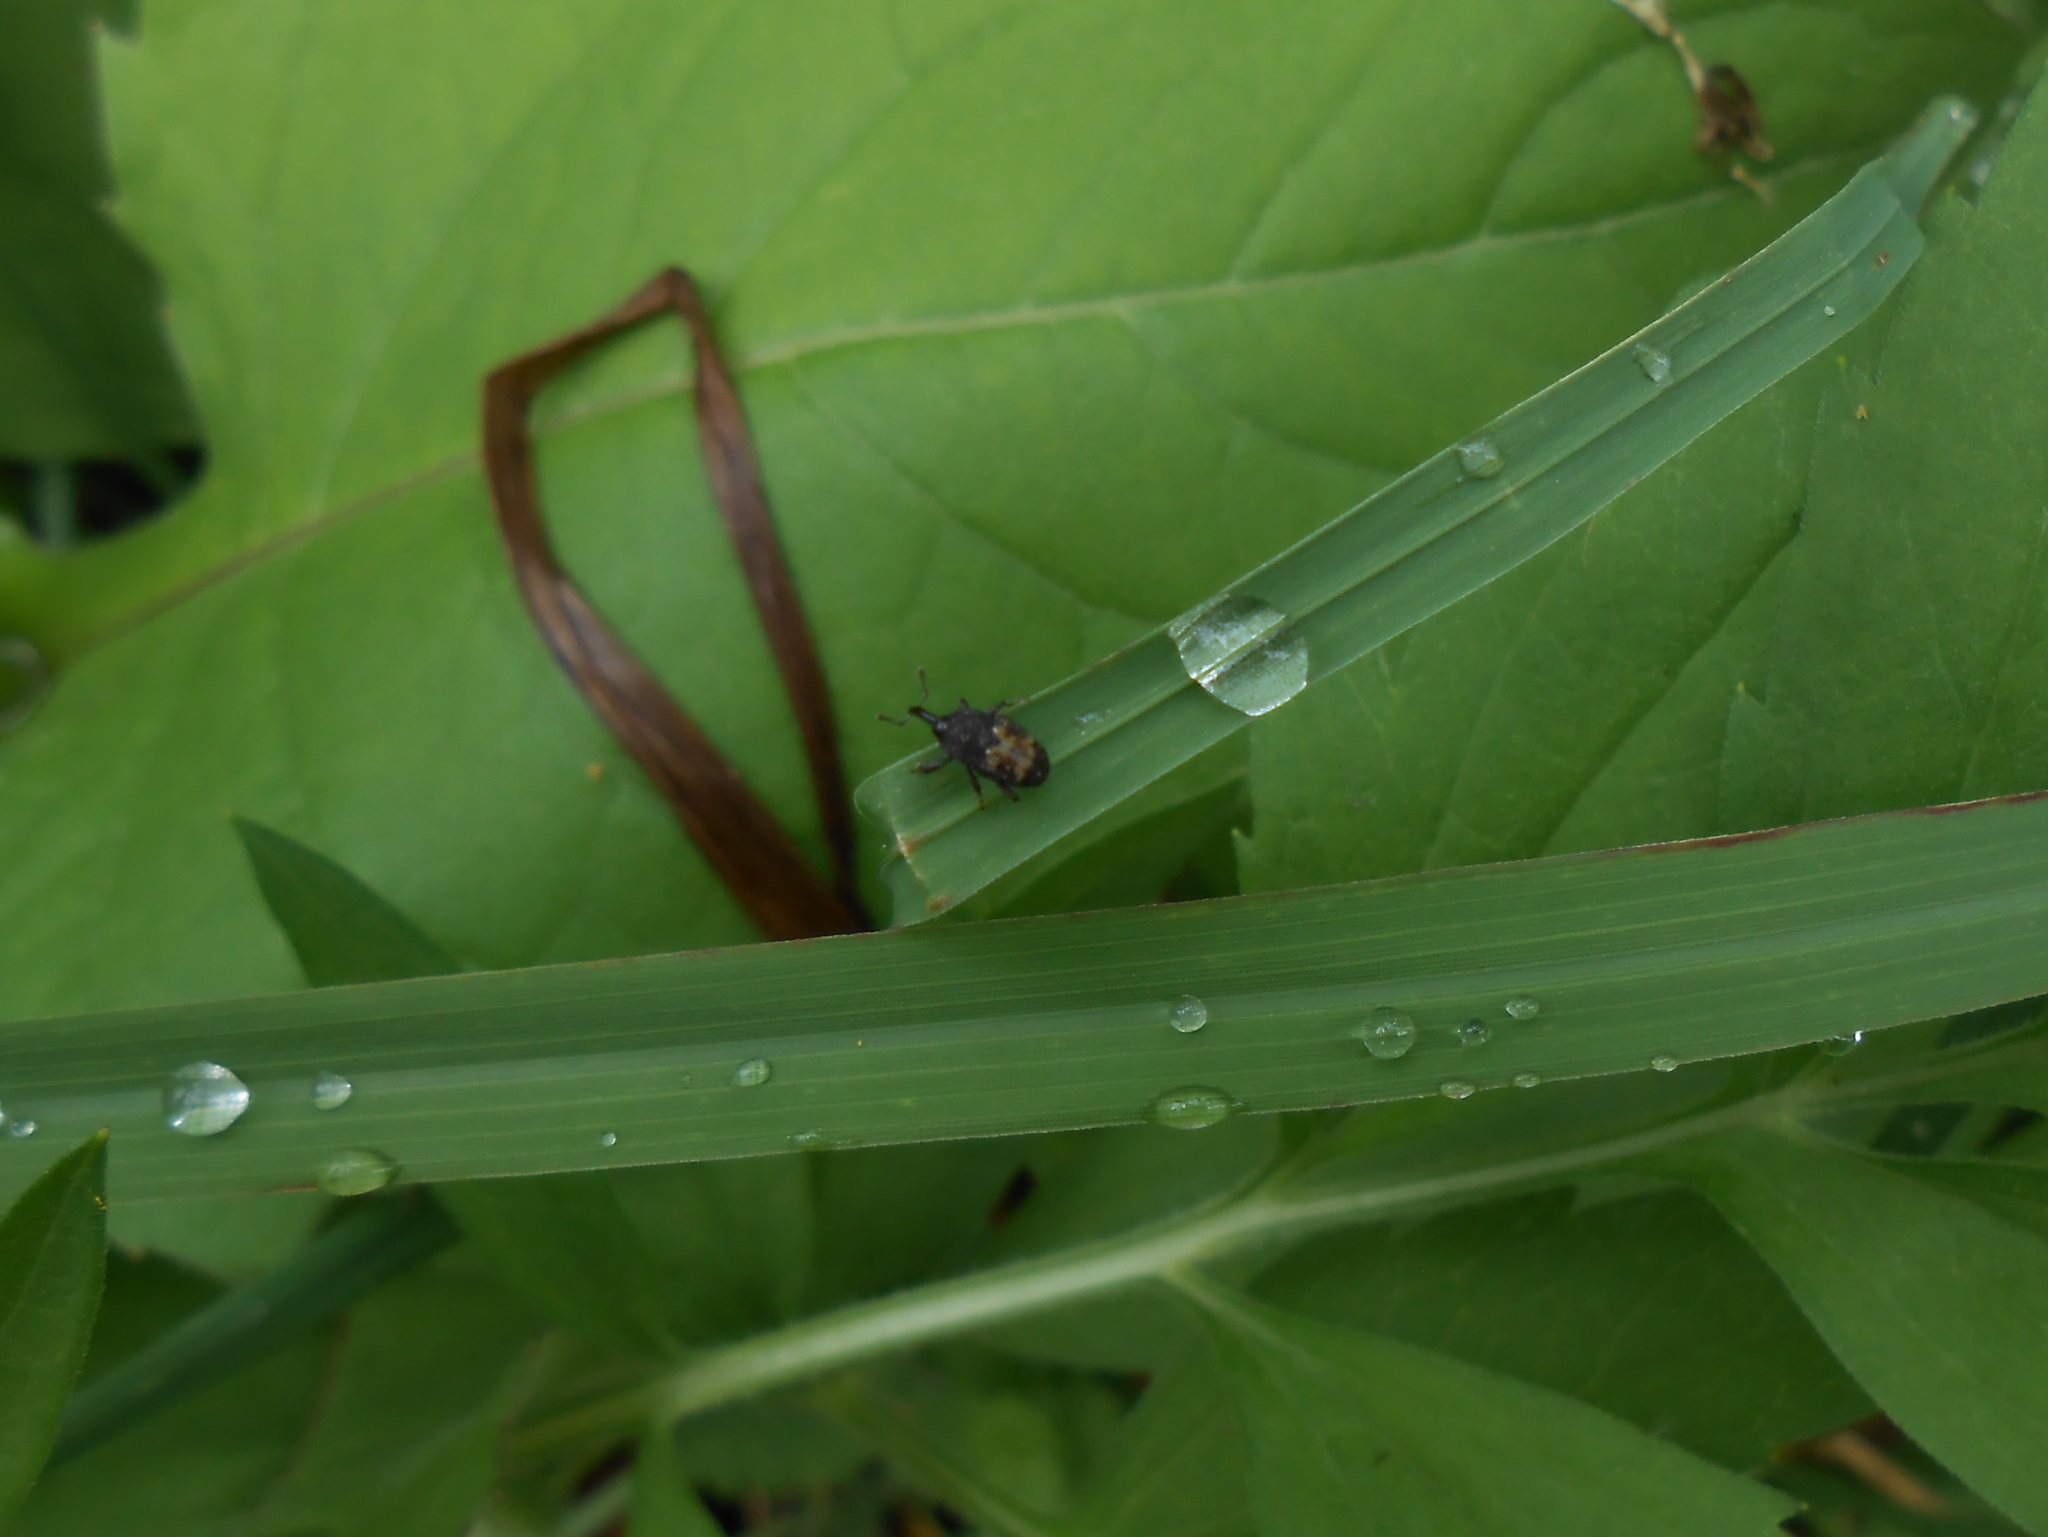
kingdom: Animalia
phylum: Arthropoda
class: Insecta
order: Coleoptera
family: Curculionidae
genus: Glyptobaris
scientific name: Glyptobaris lecontei
